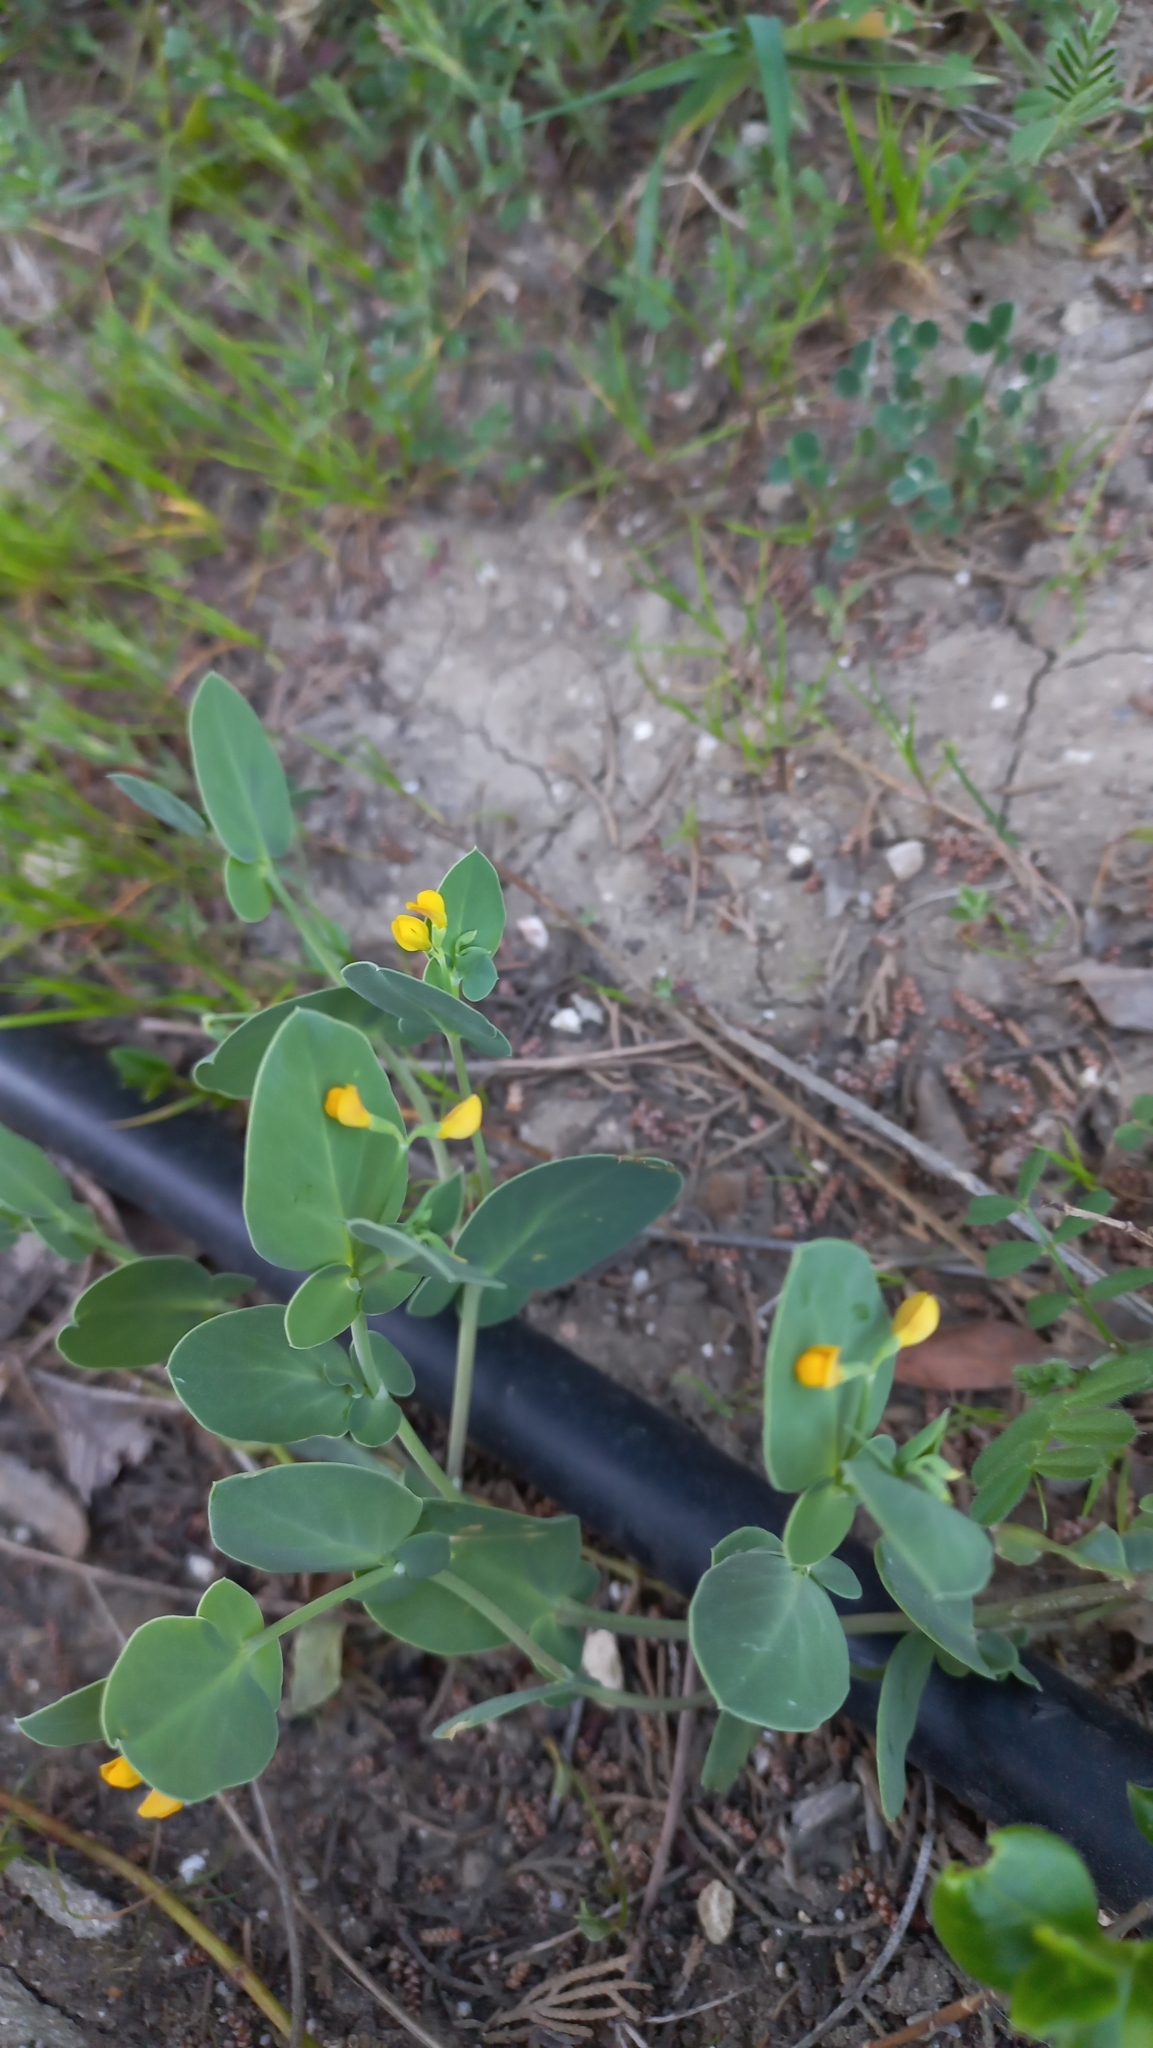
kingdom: Plantae
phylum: Tracheophyta
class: Magnoliopsida
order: Fabales
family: Fabaceae
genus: Coronilla
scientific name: Coronilla scorpioides
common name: Annual scorpion-vetch
